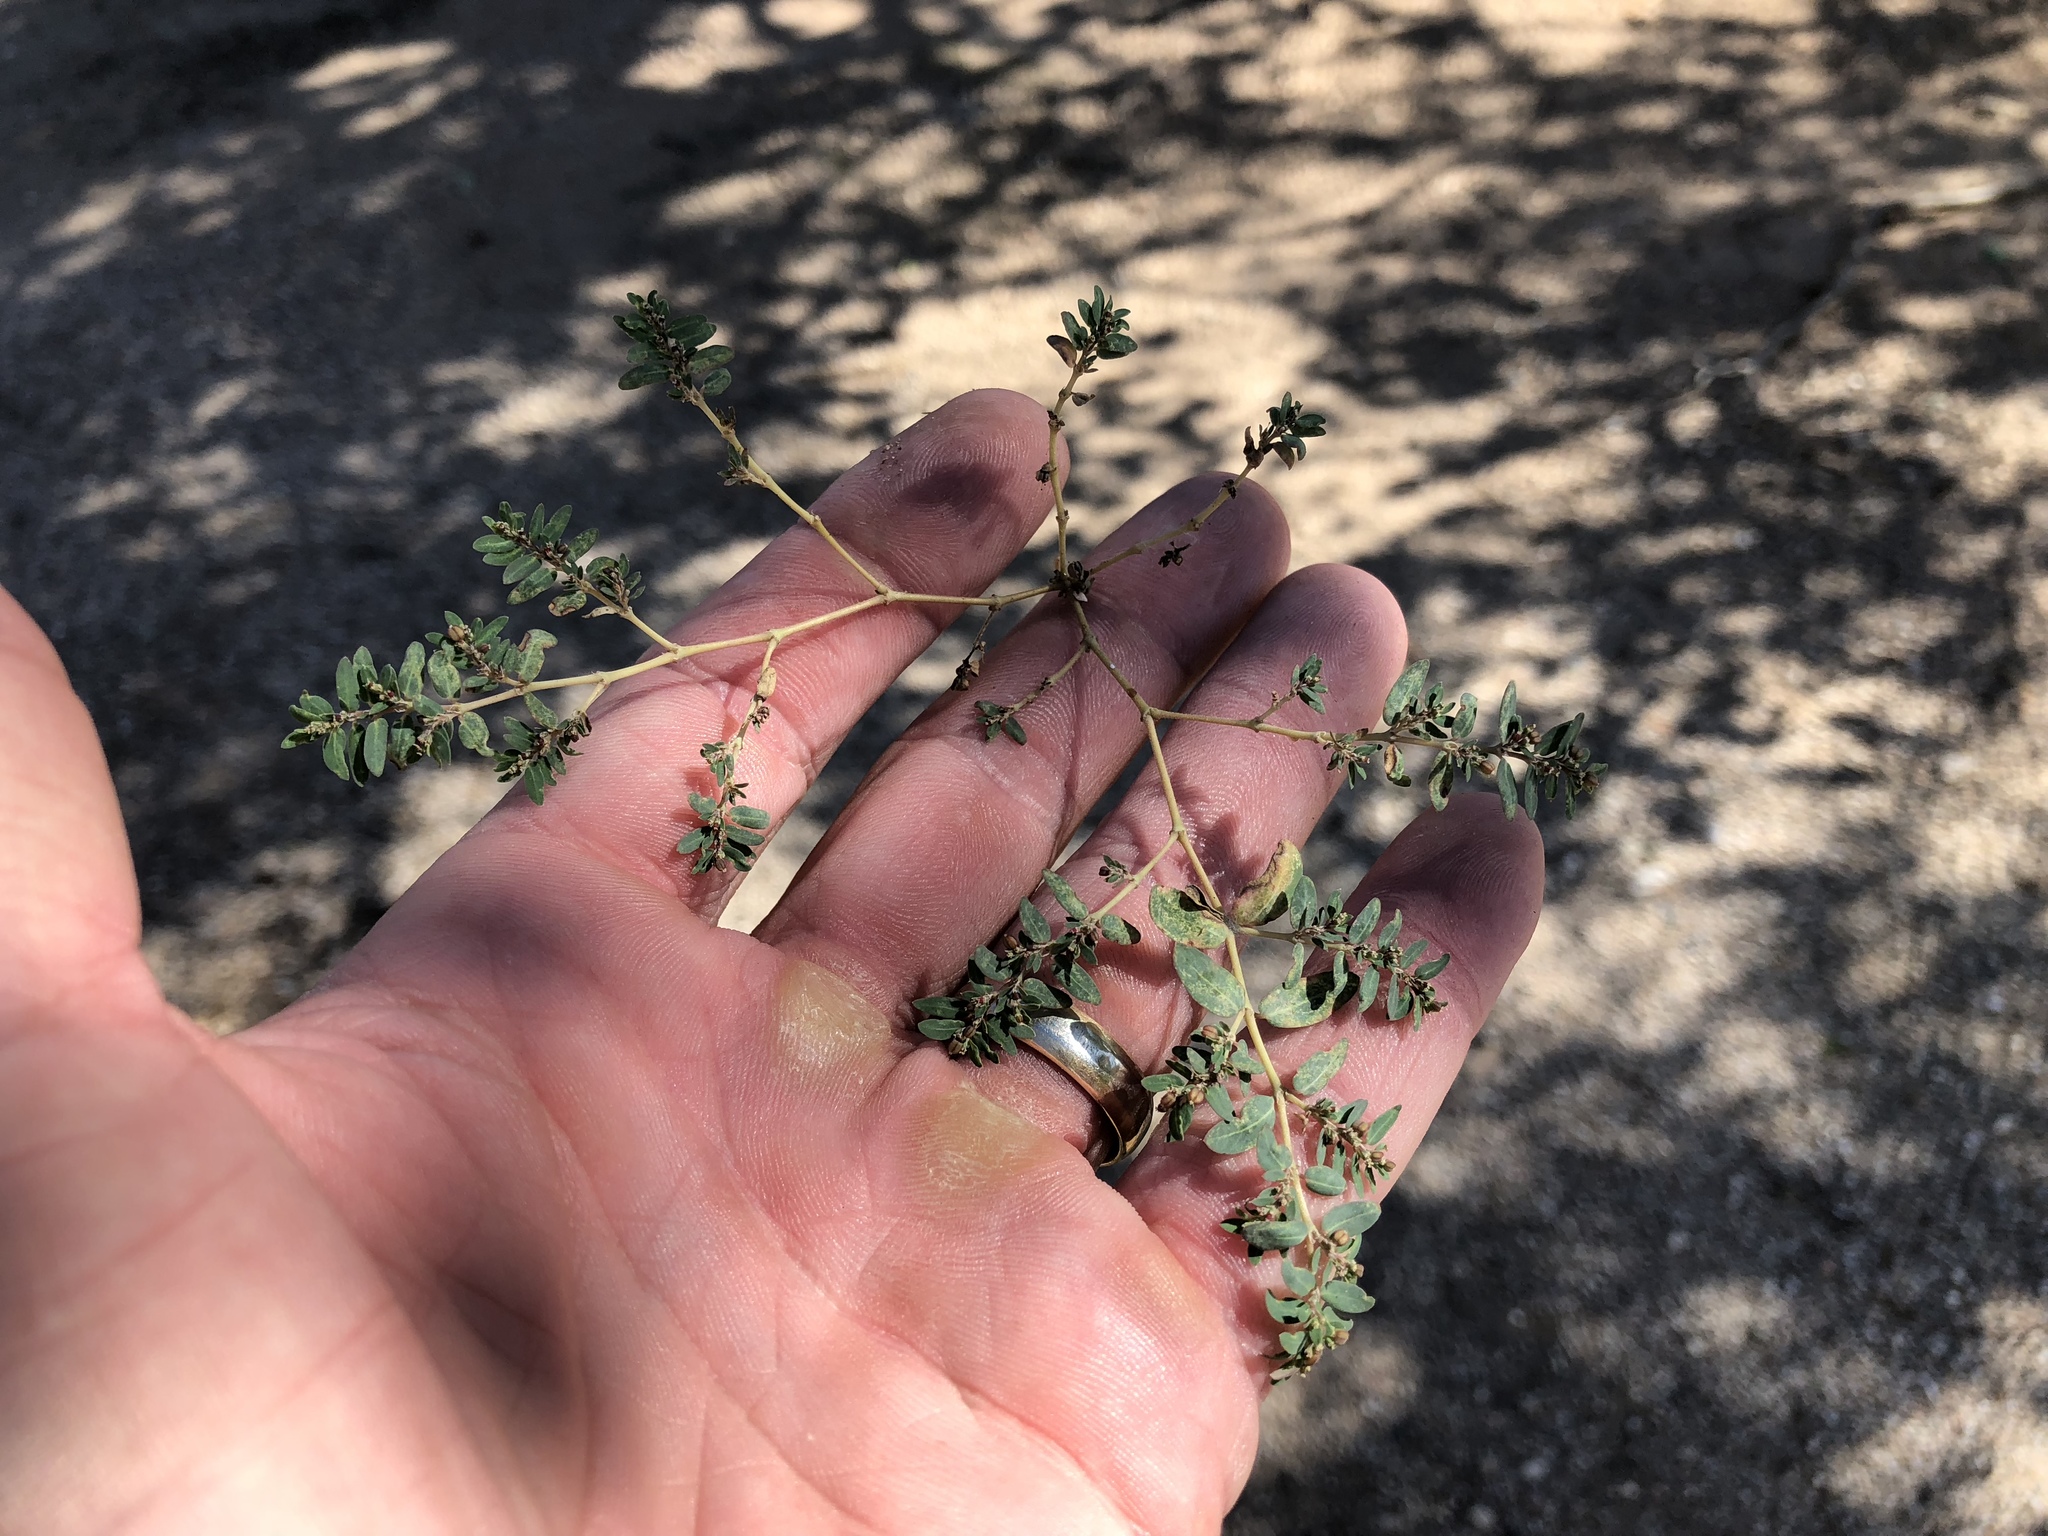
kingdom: Plantae
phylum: Tracheophyta
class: Magnoliopsida
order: Malpighiales
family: Euphorbiaceae
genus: Euphorbia
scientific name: Euphorbia abramsiana
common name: Abram's spurge
